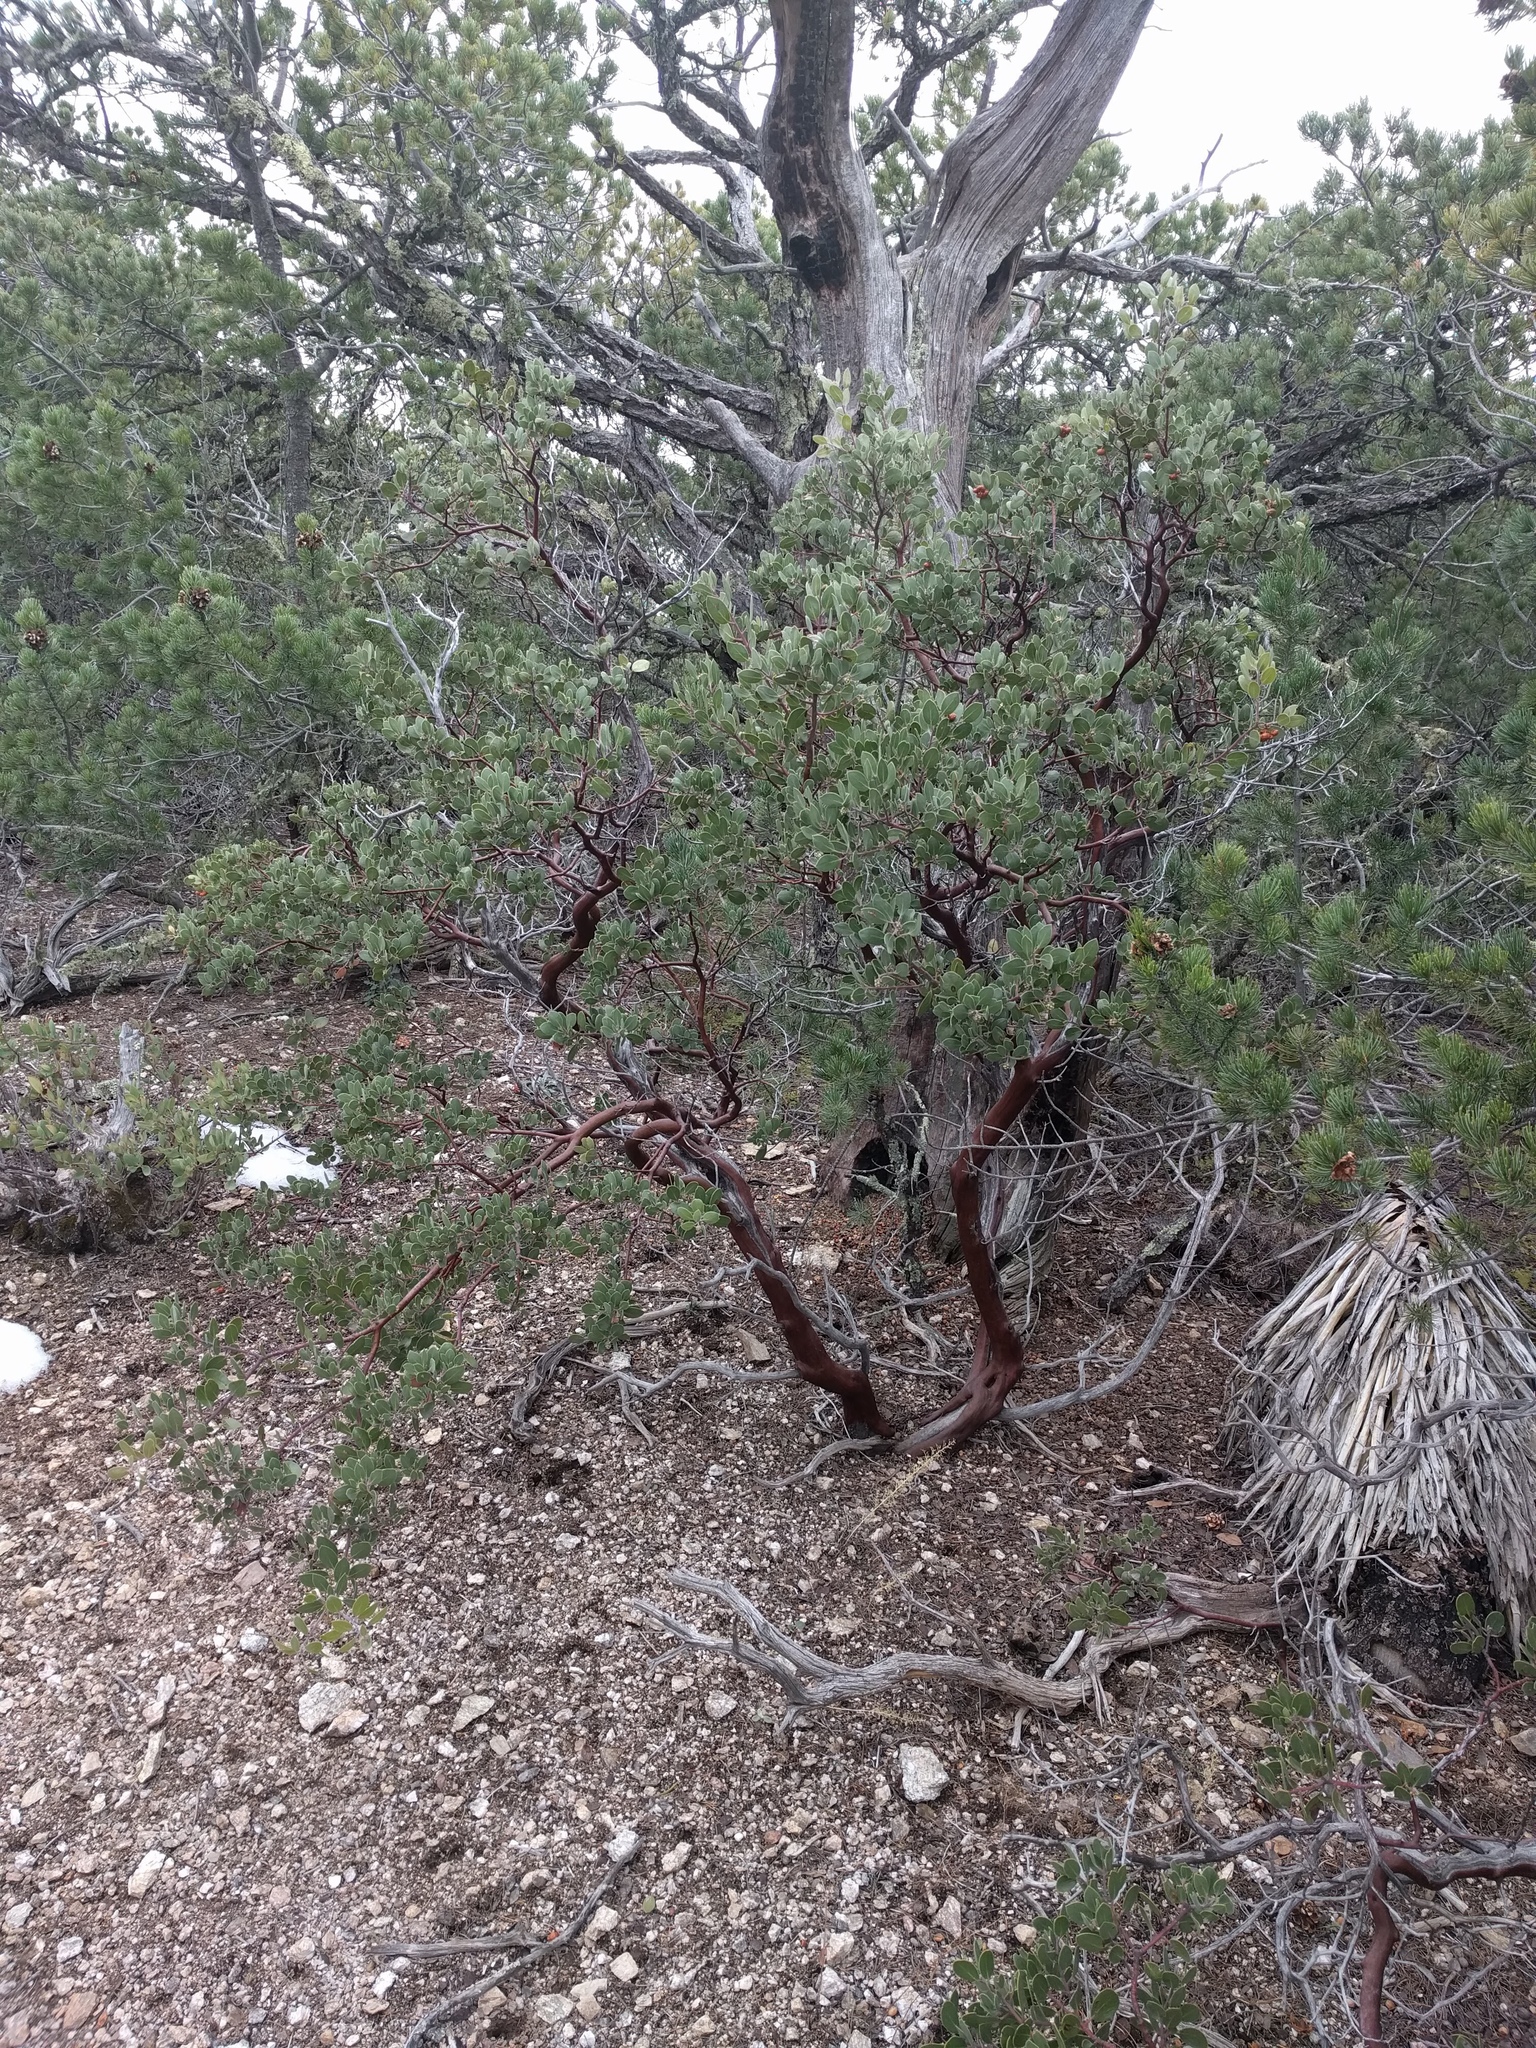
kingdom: Plantae
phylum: Tracheophyta
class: Magnoliopsida
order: Ericales
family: Ericaceae
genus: Arctostaphylos
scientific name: Arctostaphylos pungens
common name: Mexican manzanita
